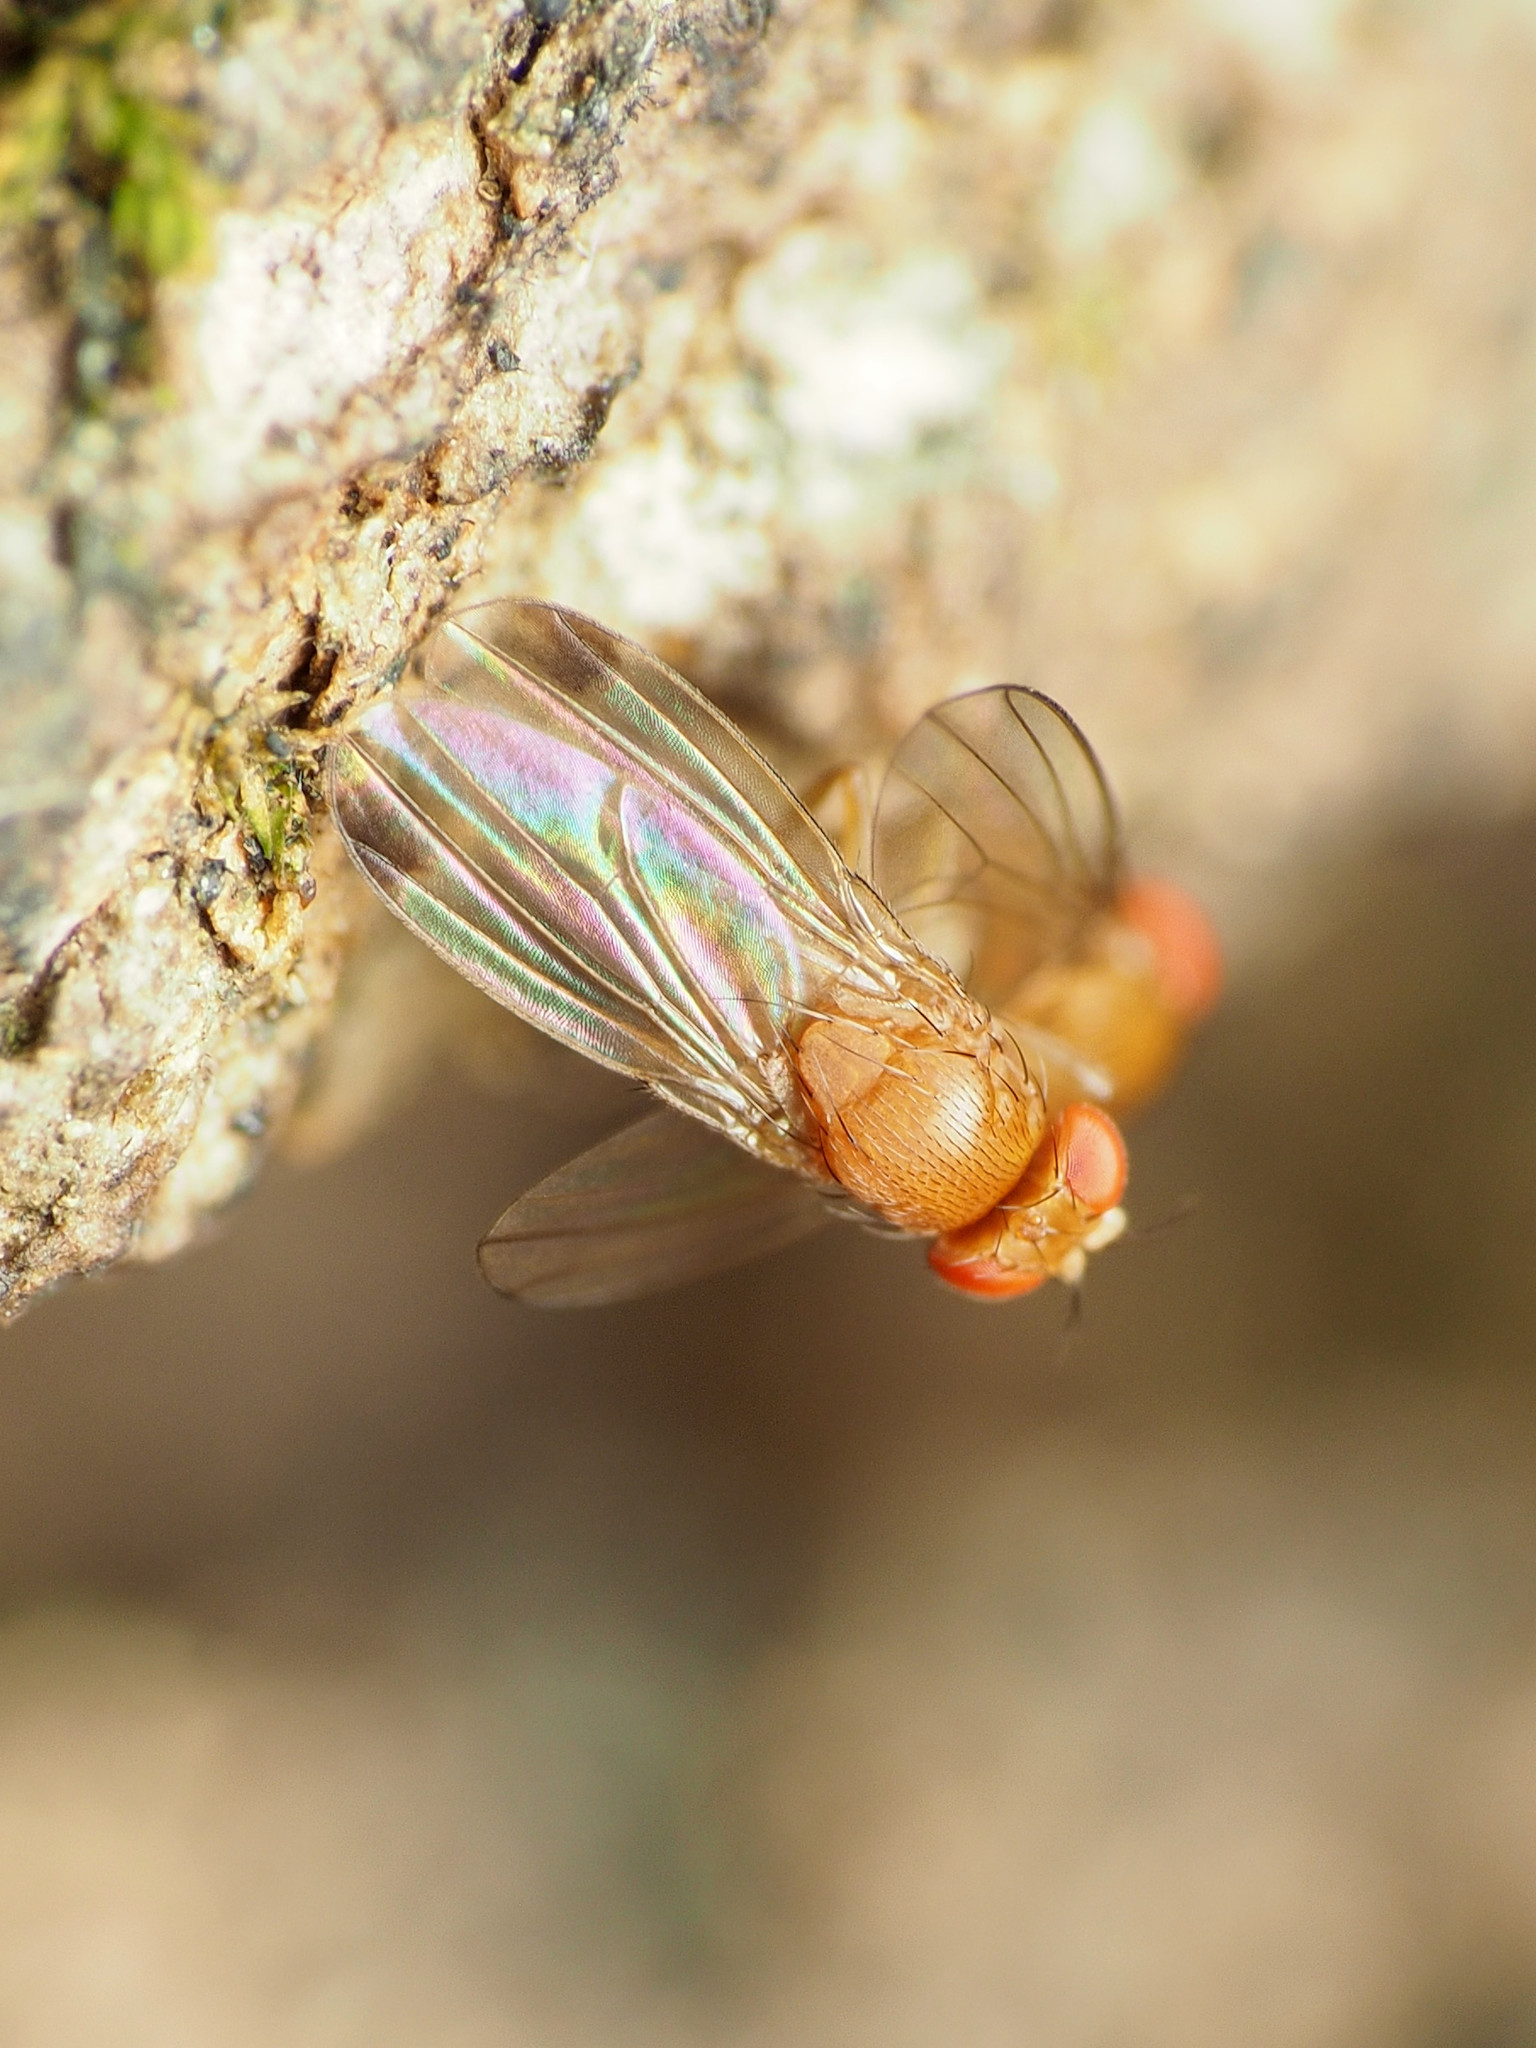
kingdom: Animalia
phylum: Arthropoda
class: Insecta
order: Diptera
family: Drosophilidae
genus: Drosophila
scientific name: Drosophila suzukii
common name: Spotted-wing drosophila
